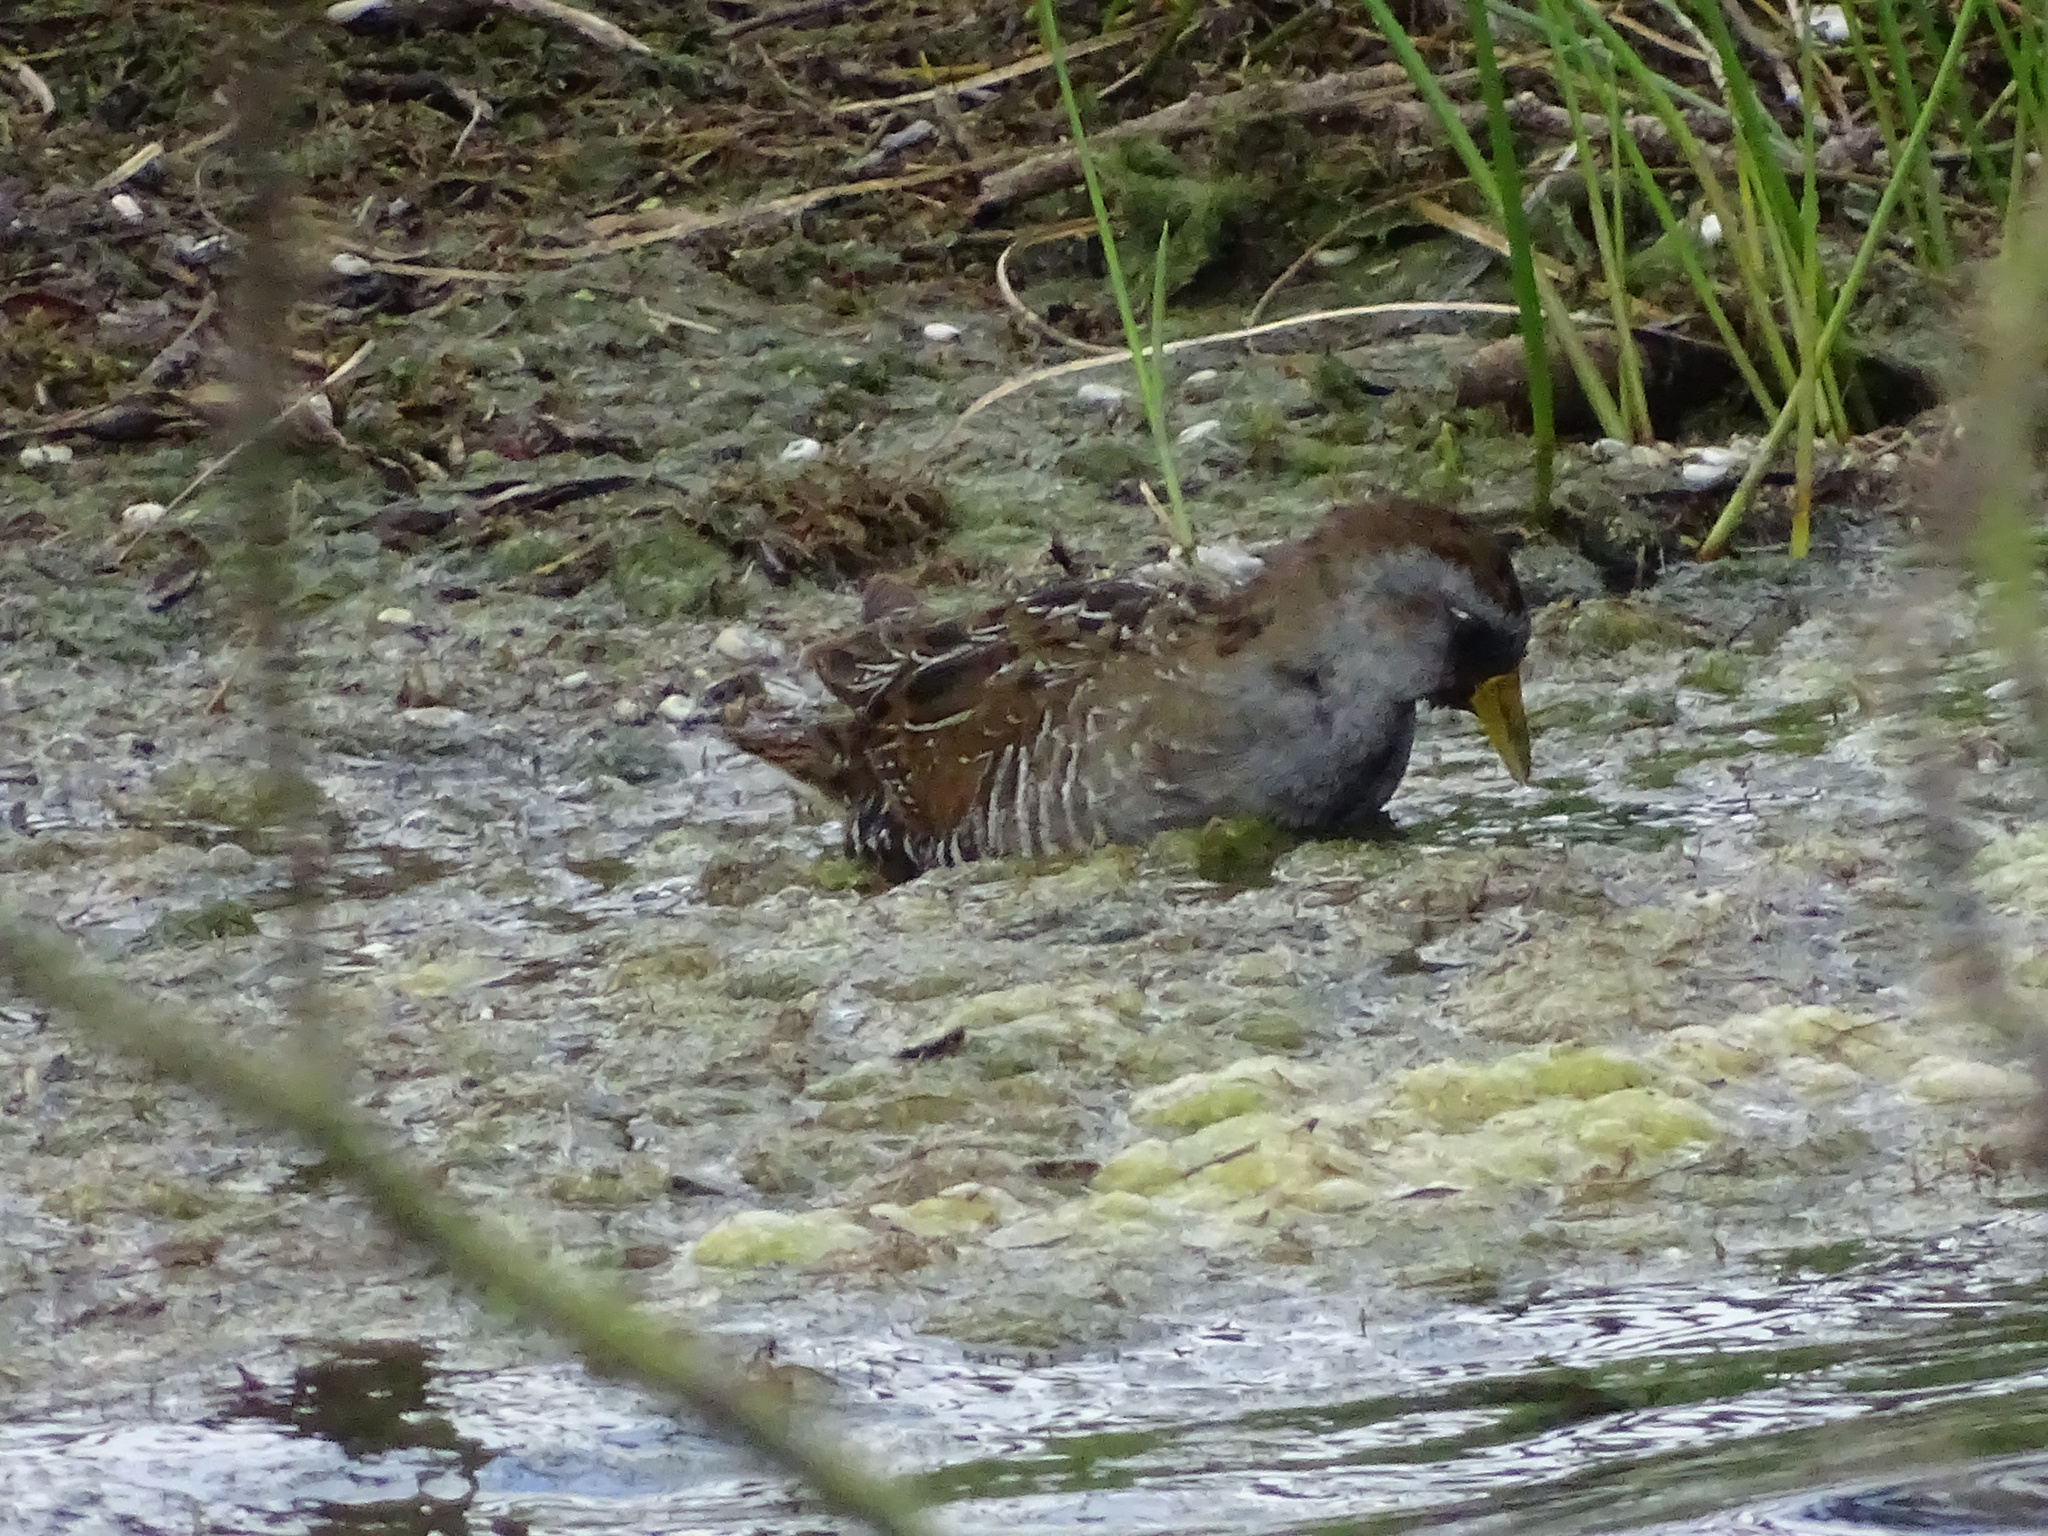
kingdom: Animalia
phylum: Chordata
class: Aves
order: Gruiformes
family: Rallidae
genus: Porzana
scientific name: Porzana carolina
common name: Sora
